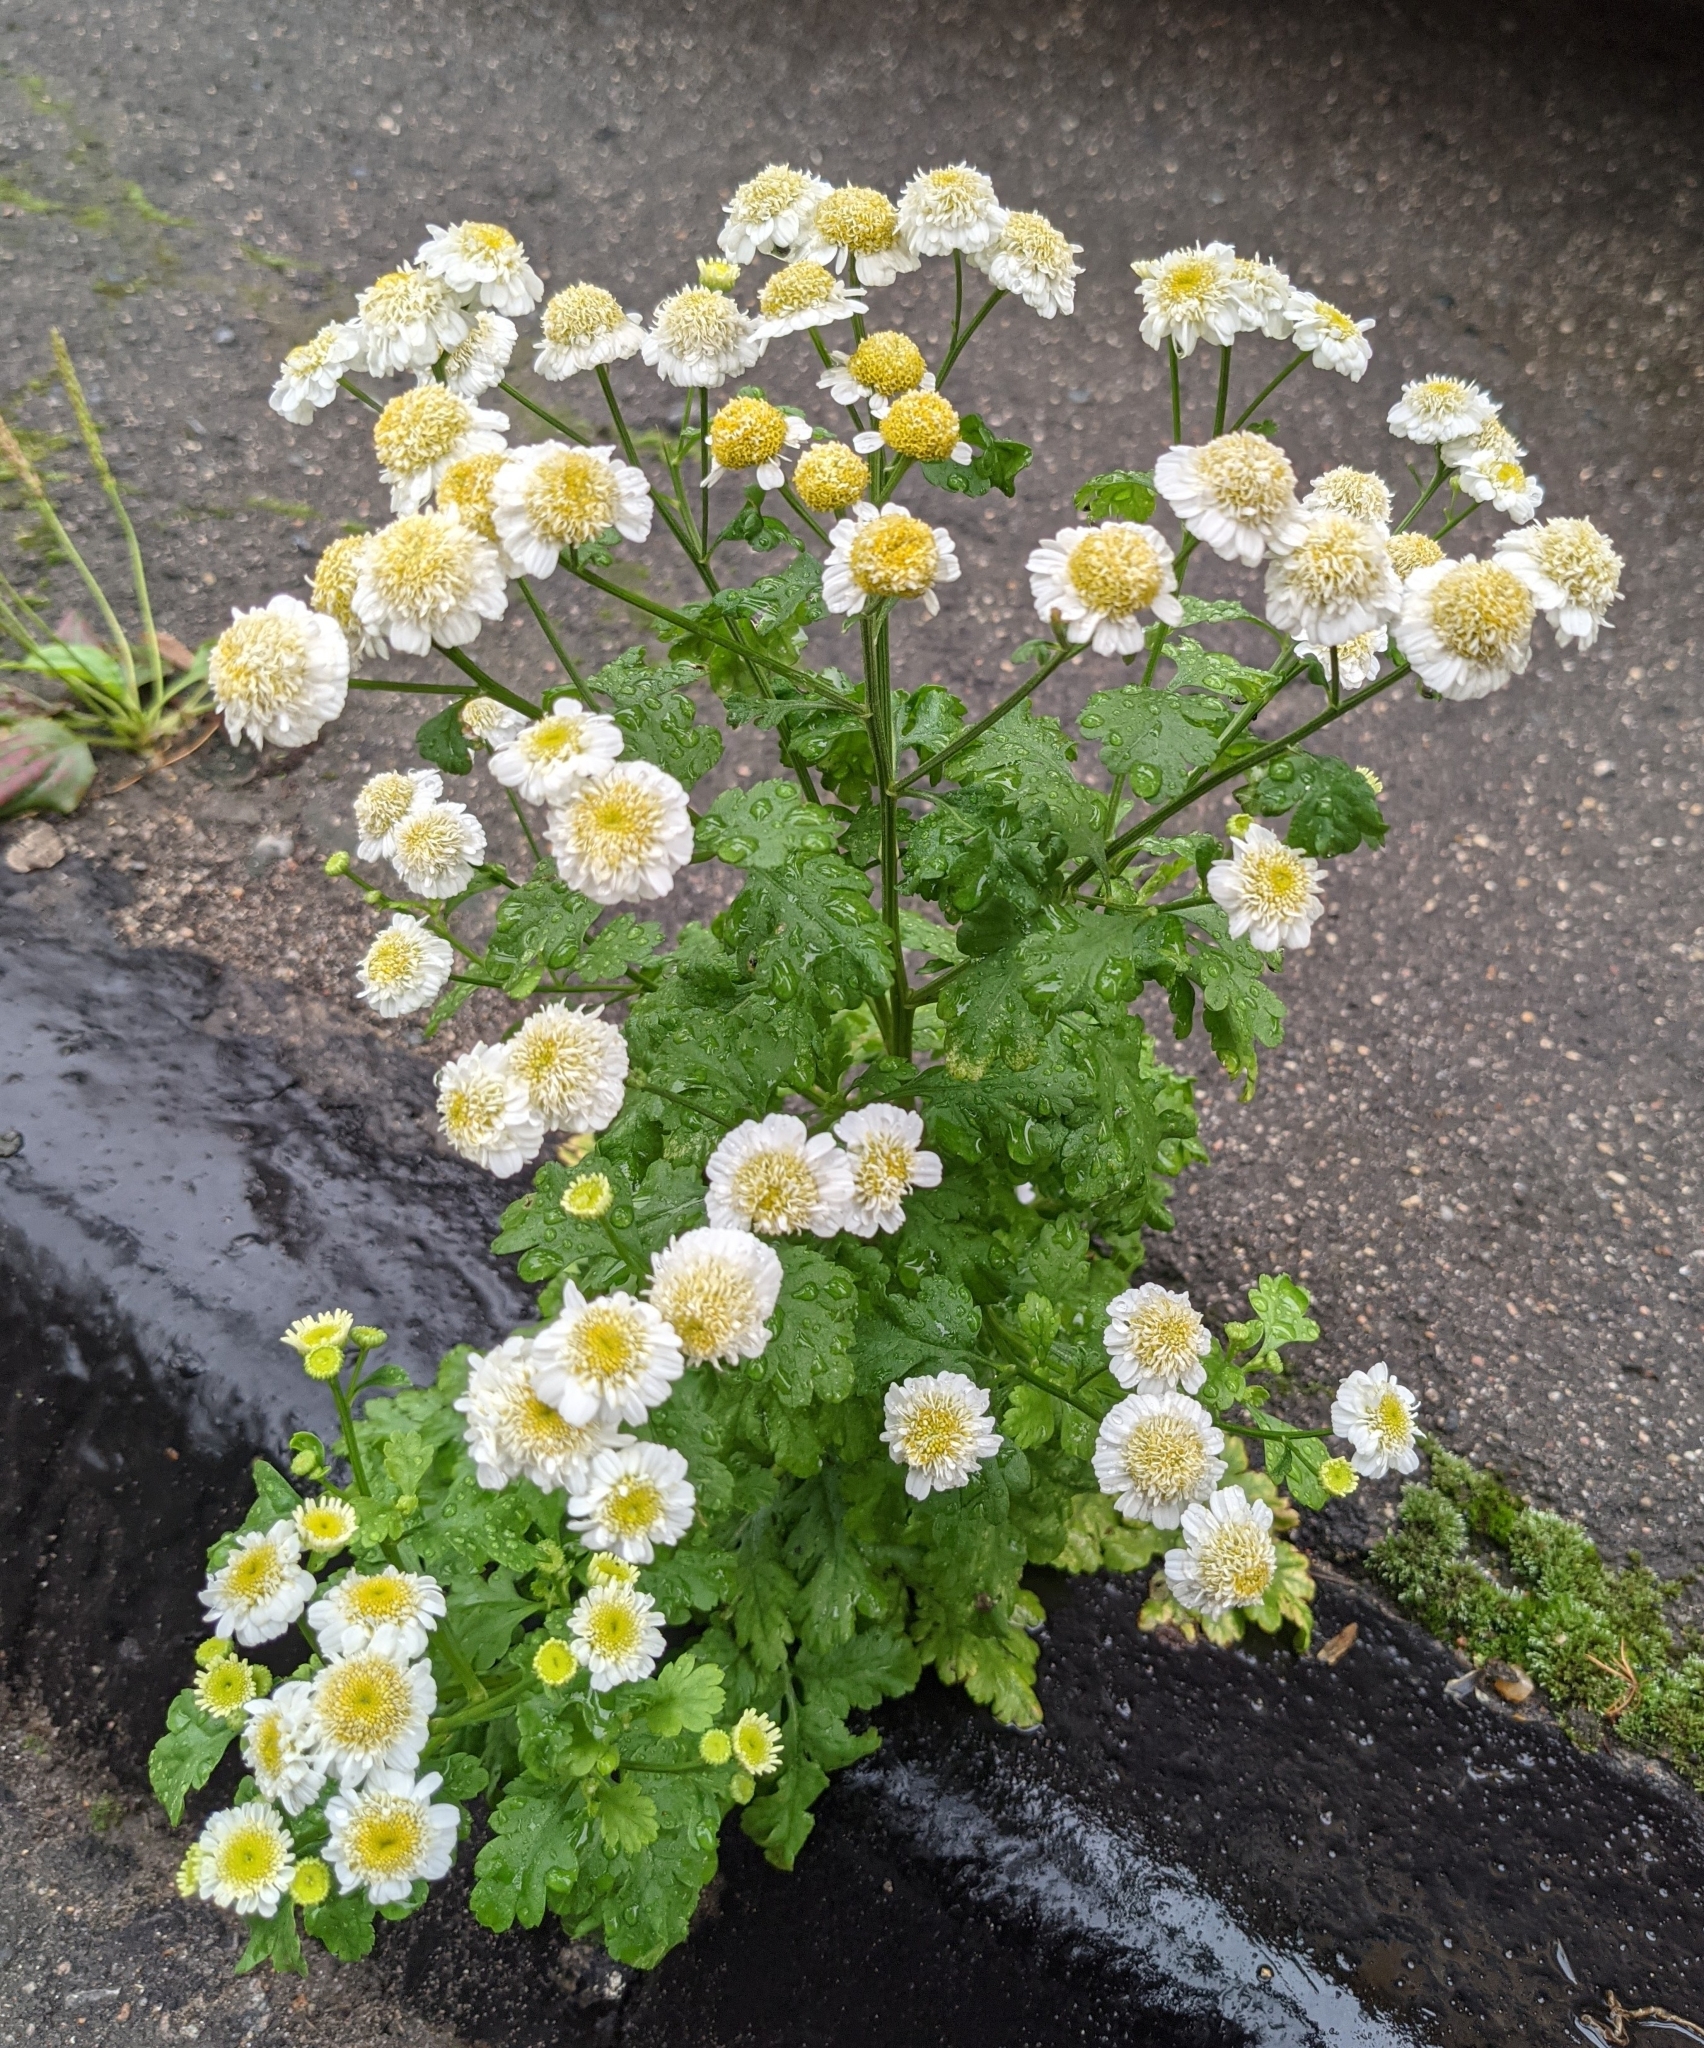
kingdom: Plantae
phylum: Tracheophyta
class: Magnoliopsida
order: Asterales
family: Asteraceae
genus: Tanacetum
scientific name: Tanacetum parthenium
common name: Feverfew
